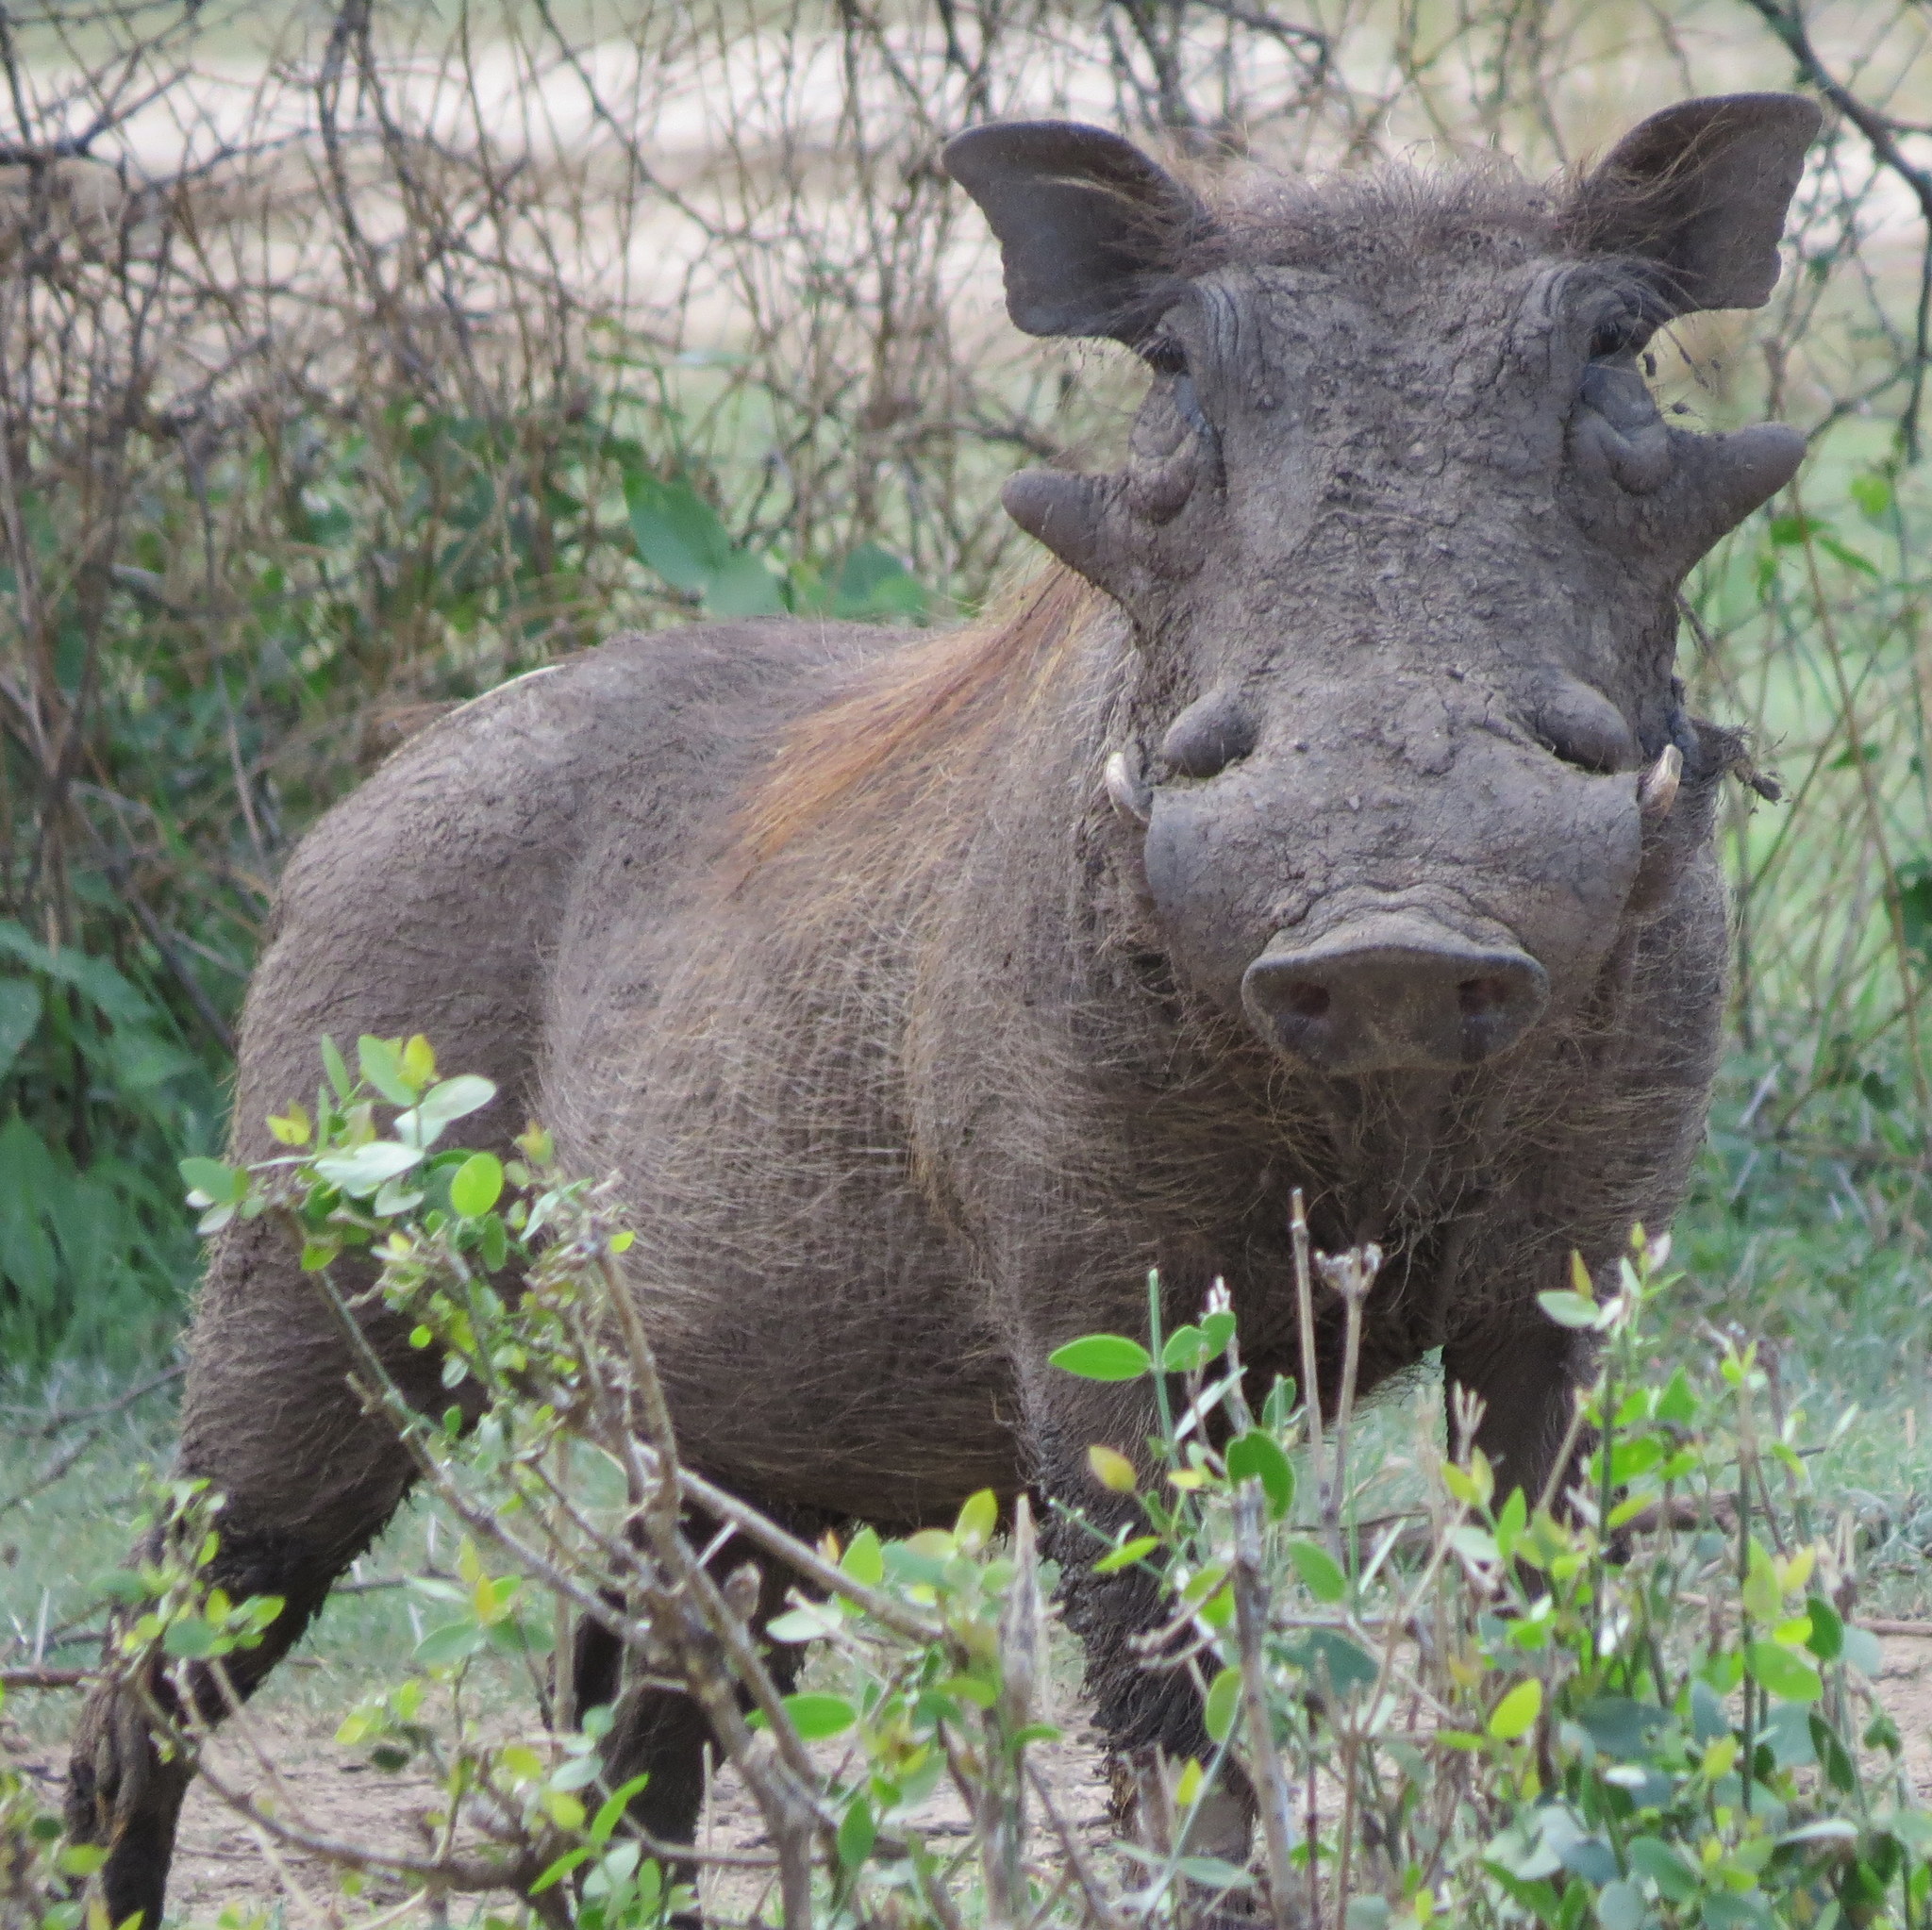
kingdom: Animalia
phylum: Chordata
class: Mammalia
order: Artiodactyla
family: Suidae
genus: Phacochoerus
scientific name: Phacochoerus africanus
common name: Common warthog
